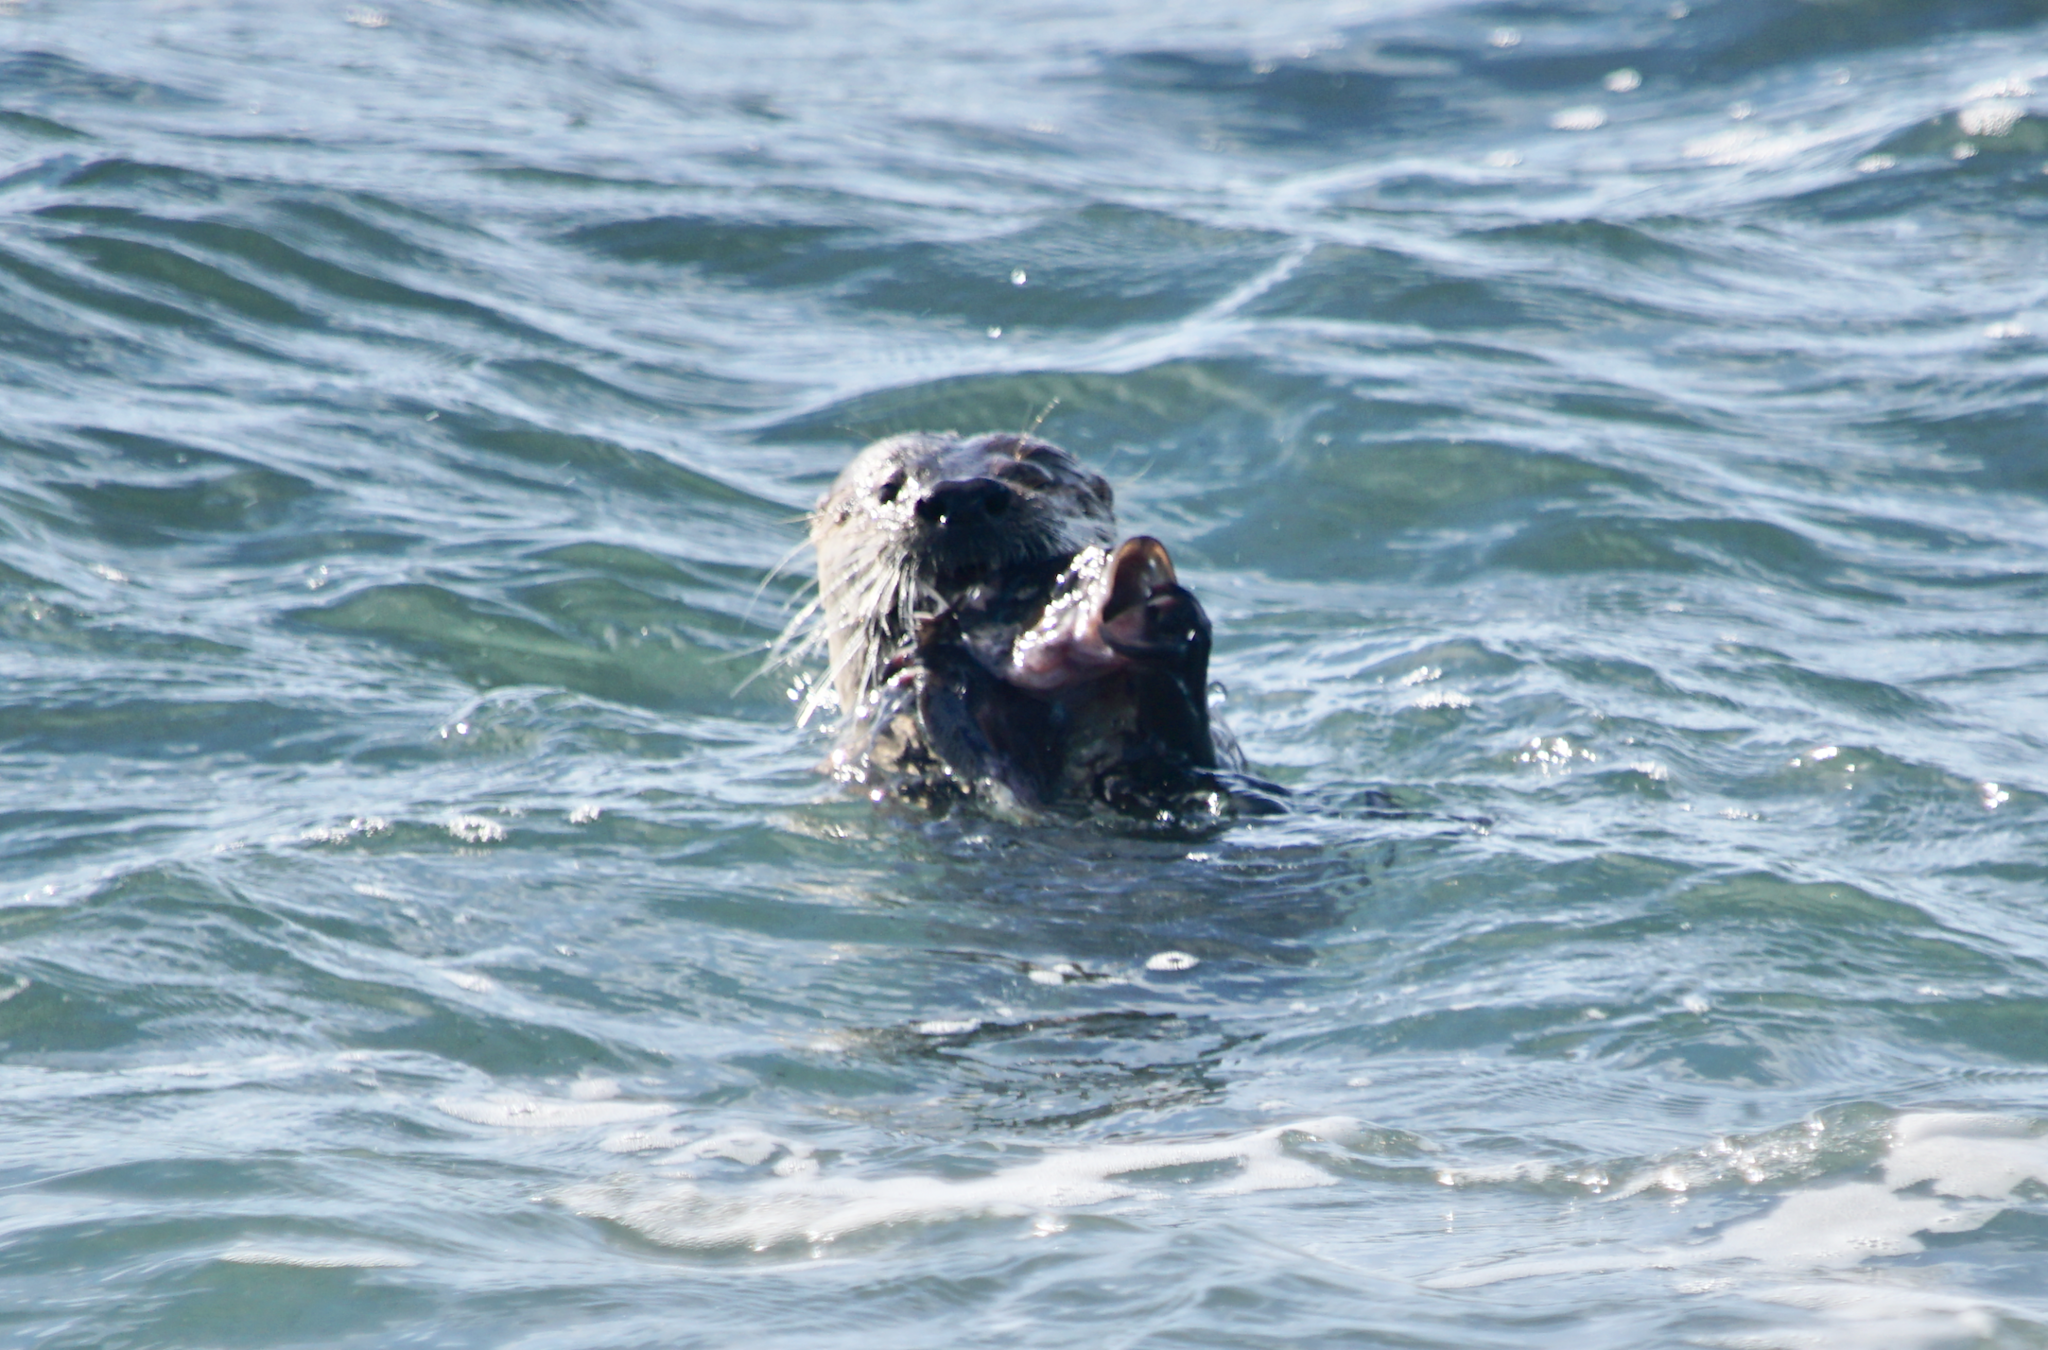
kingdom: Animalia
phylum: Chordata
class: Mammalia
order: Carnivora
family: Mustelidae
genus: Lontra
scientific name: Lontra canadensis
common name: North american river otter
